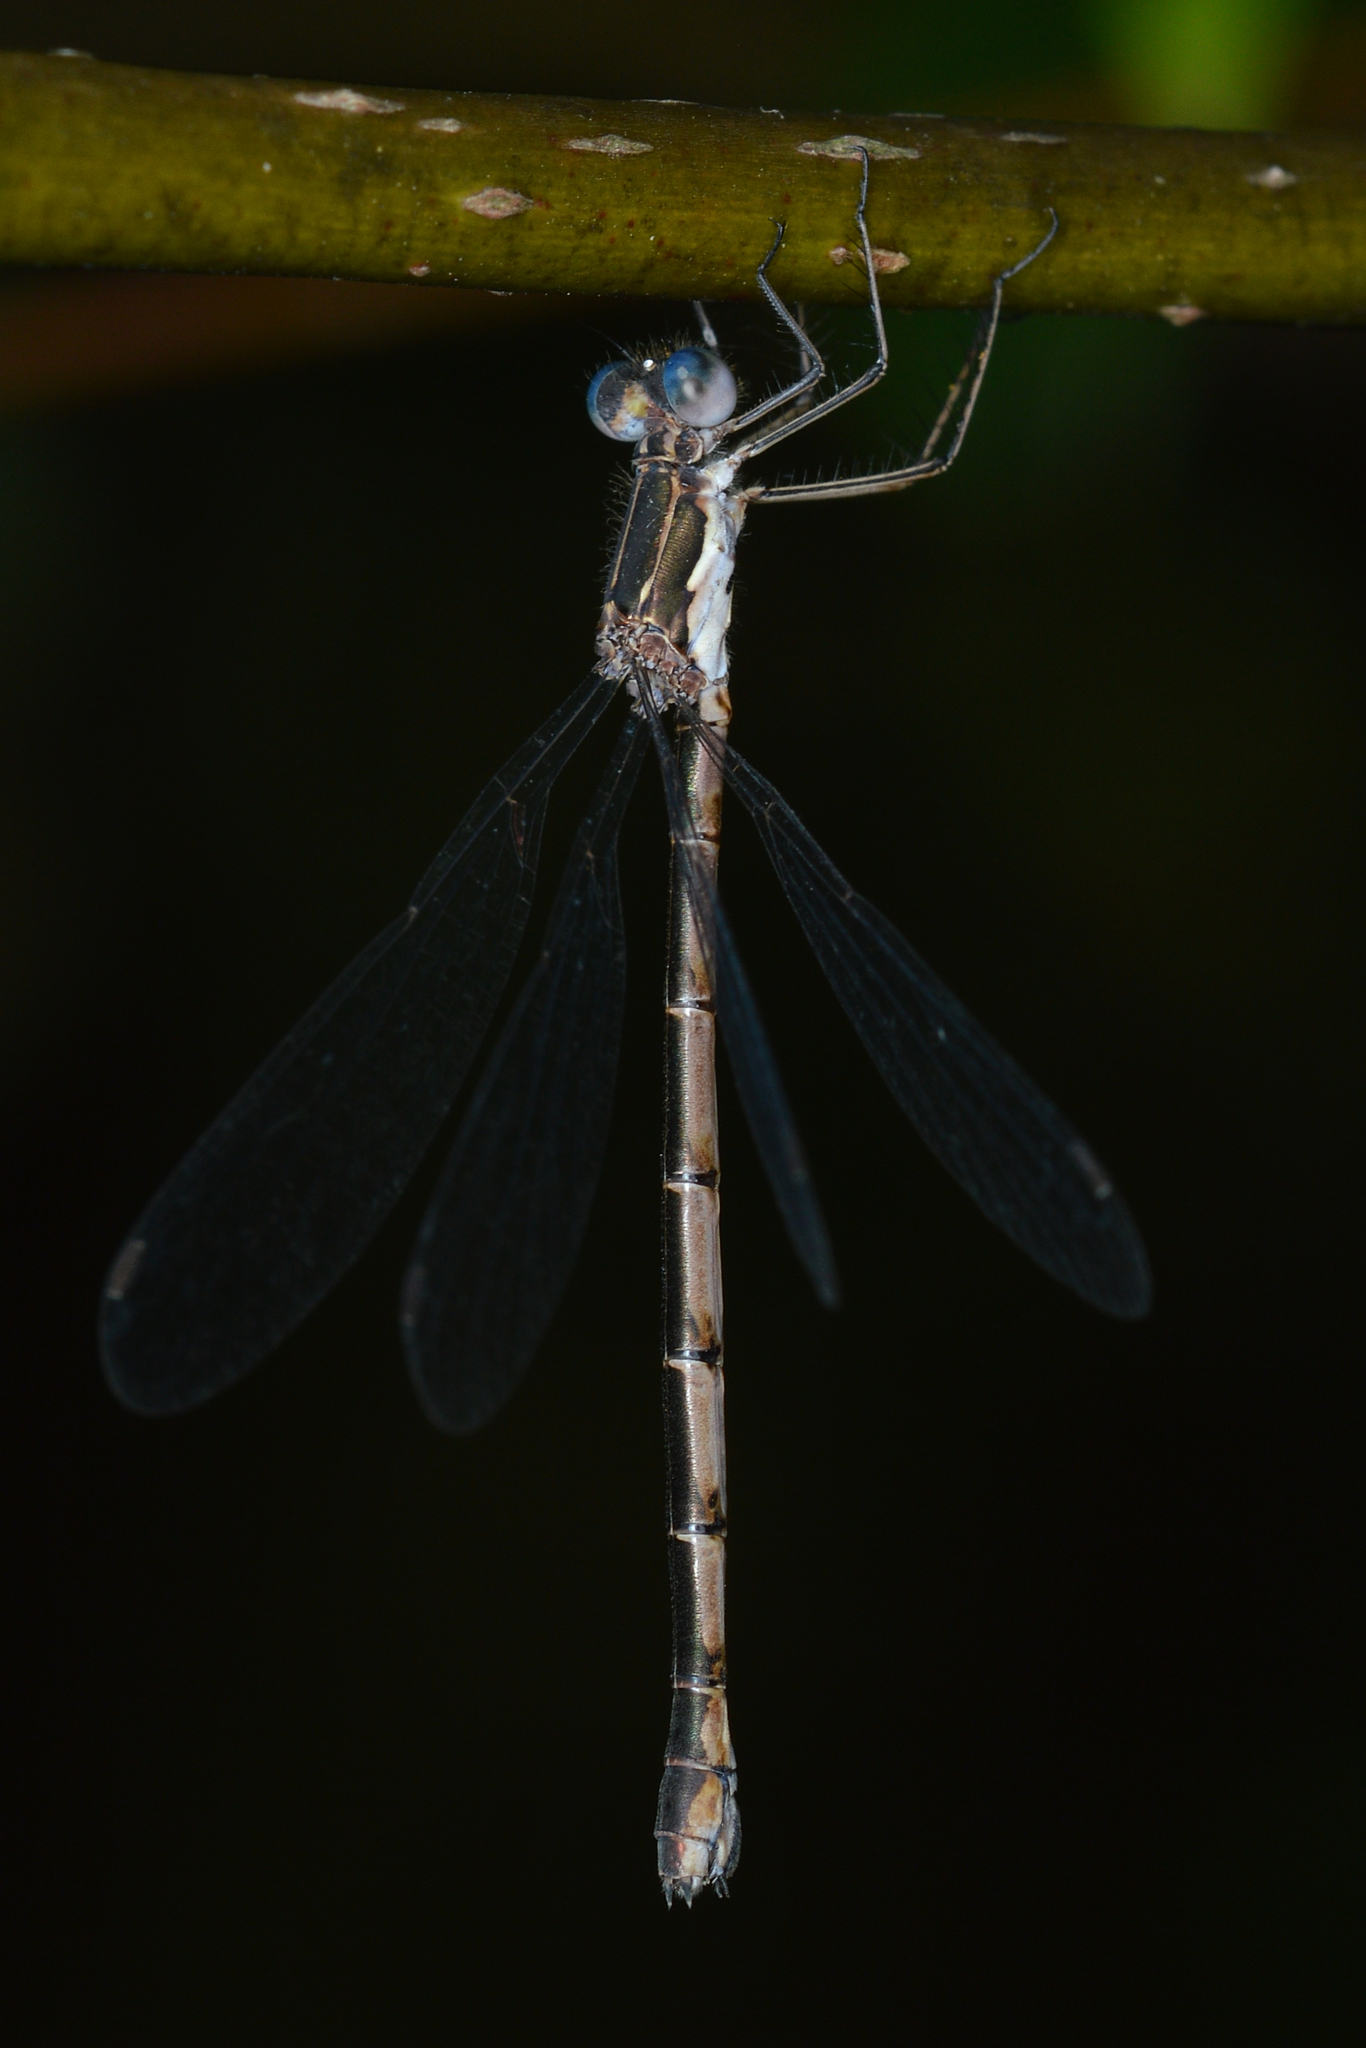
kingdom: Animalia
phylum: Arthropoda
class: Insecta
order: Odonata
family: Lestidae
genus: Lestes
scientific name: Lestes congener
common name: Spotted spreadwing
